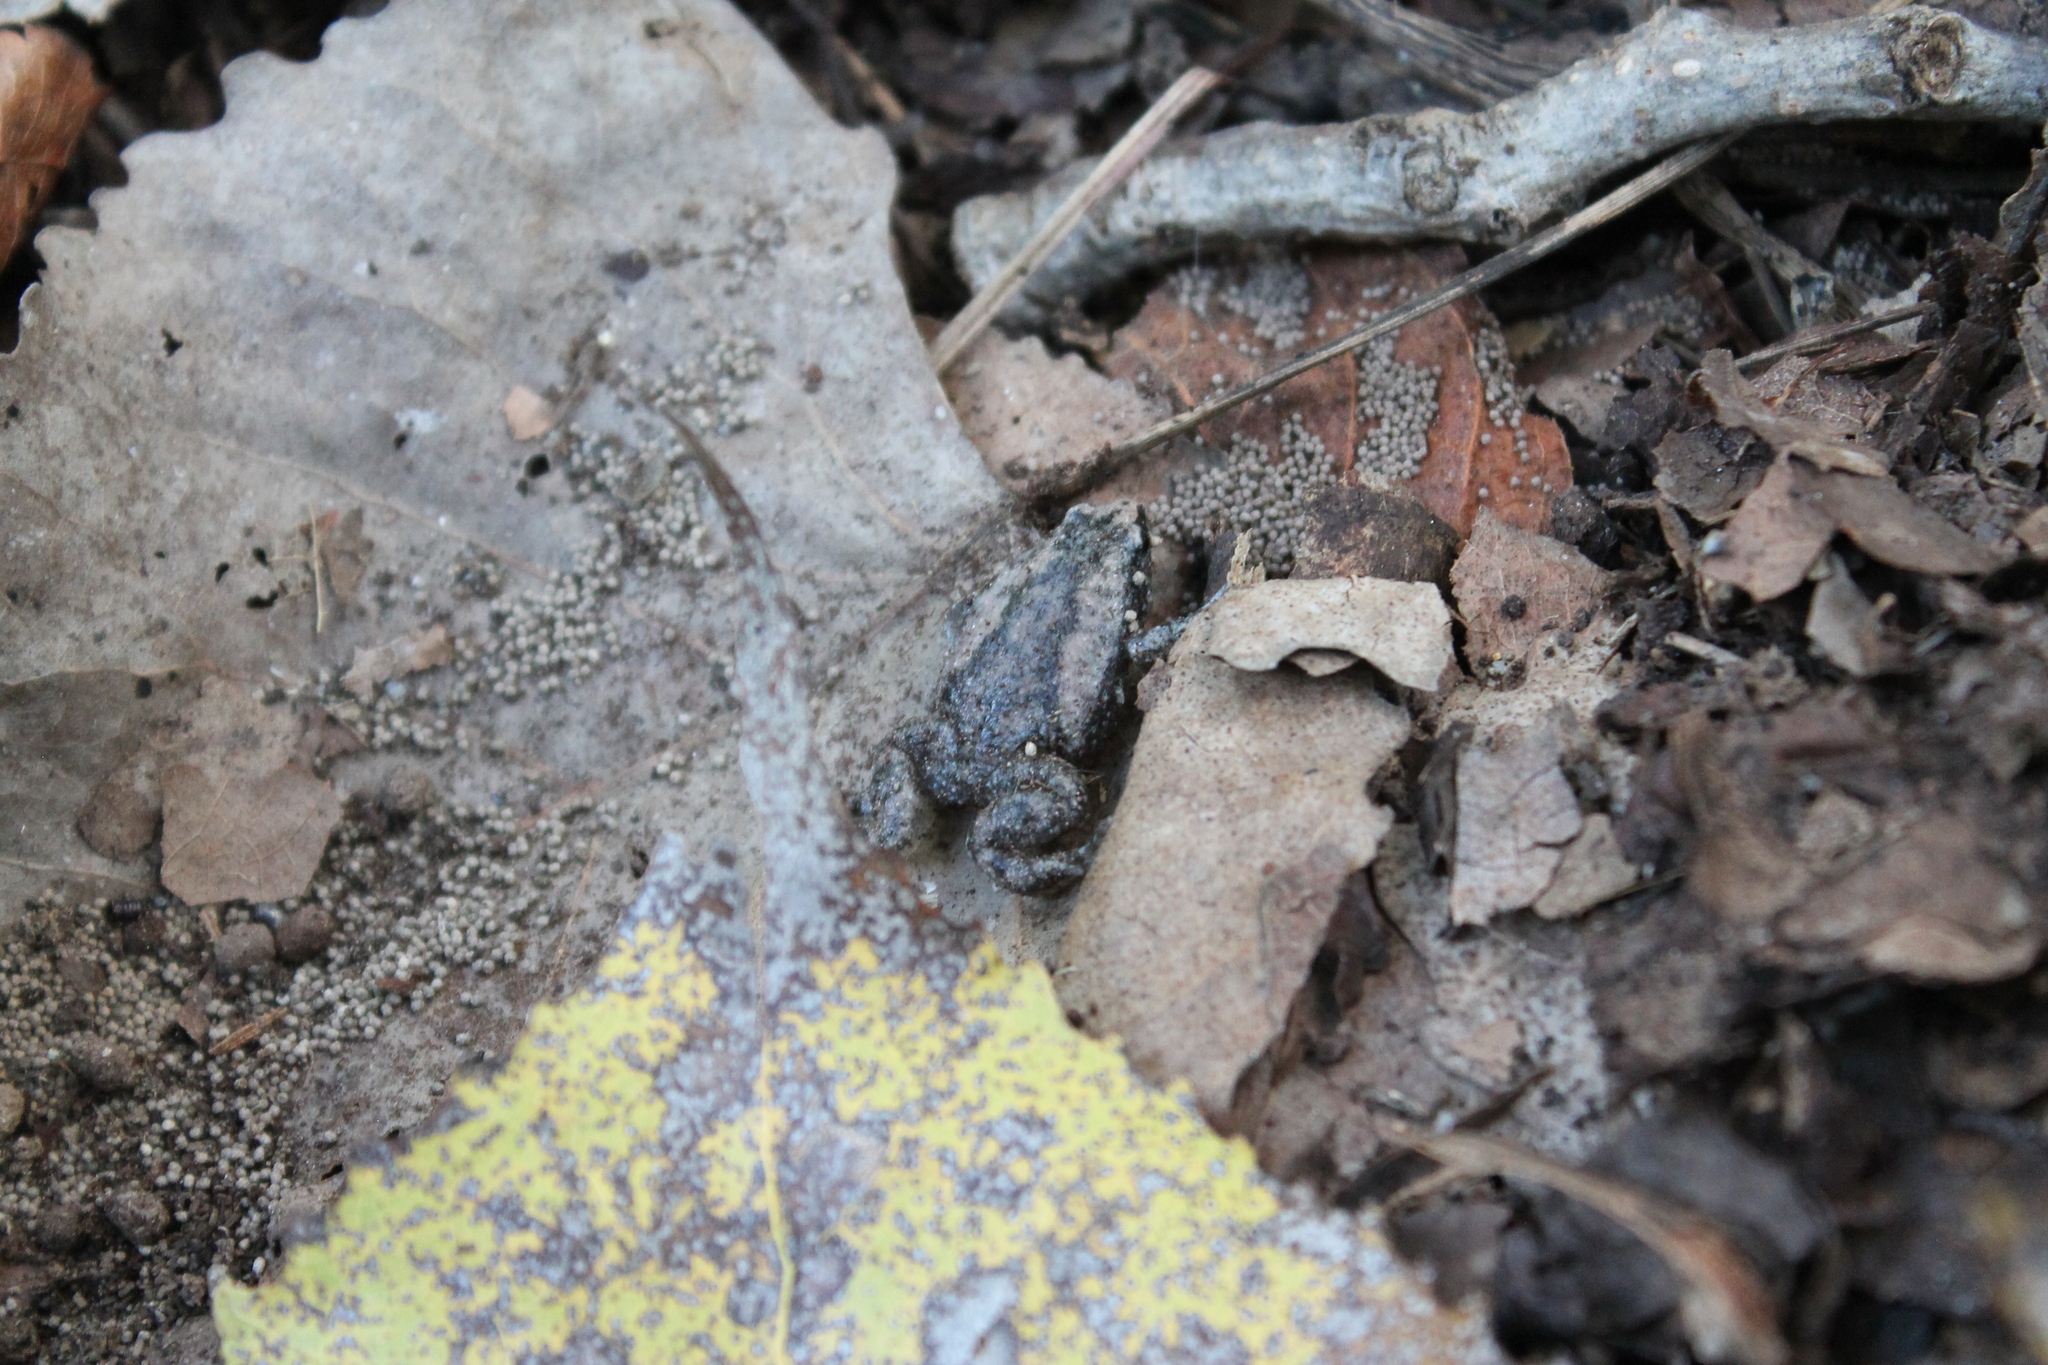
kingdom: Animalia
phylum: Chordata
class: Amphibia
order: Anura
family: Microhylidae
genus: Gastrophryne
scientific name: Gastrophryne carolinensis
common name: Eastern narrowmouth toad
